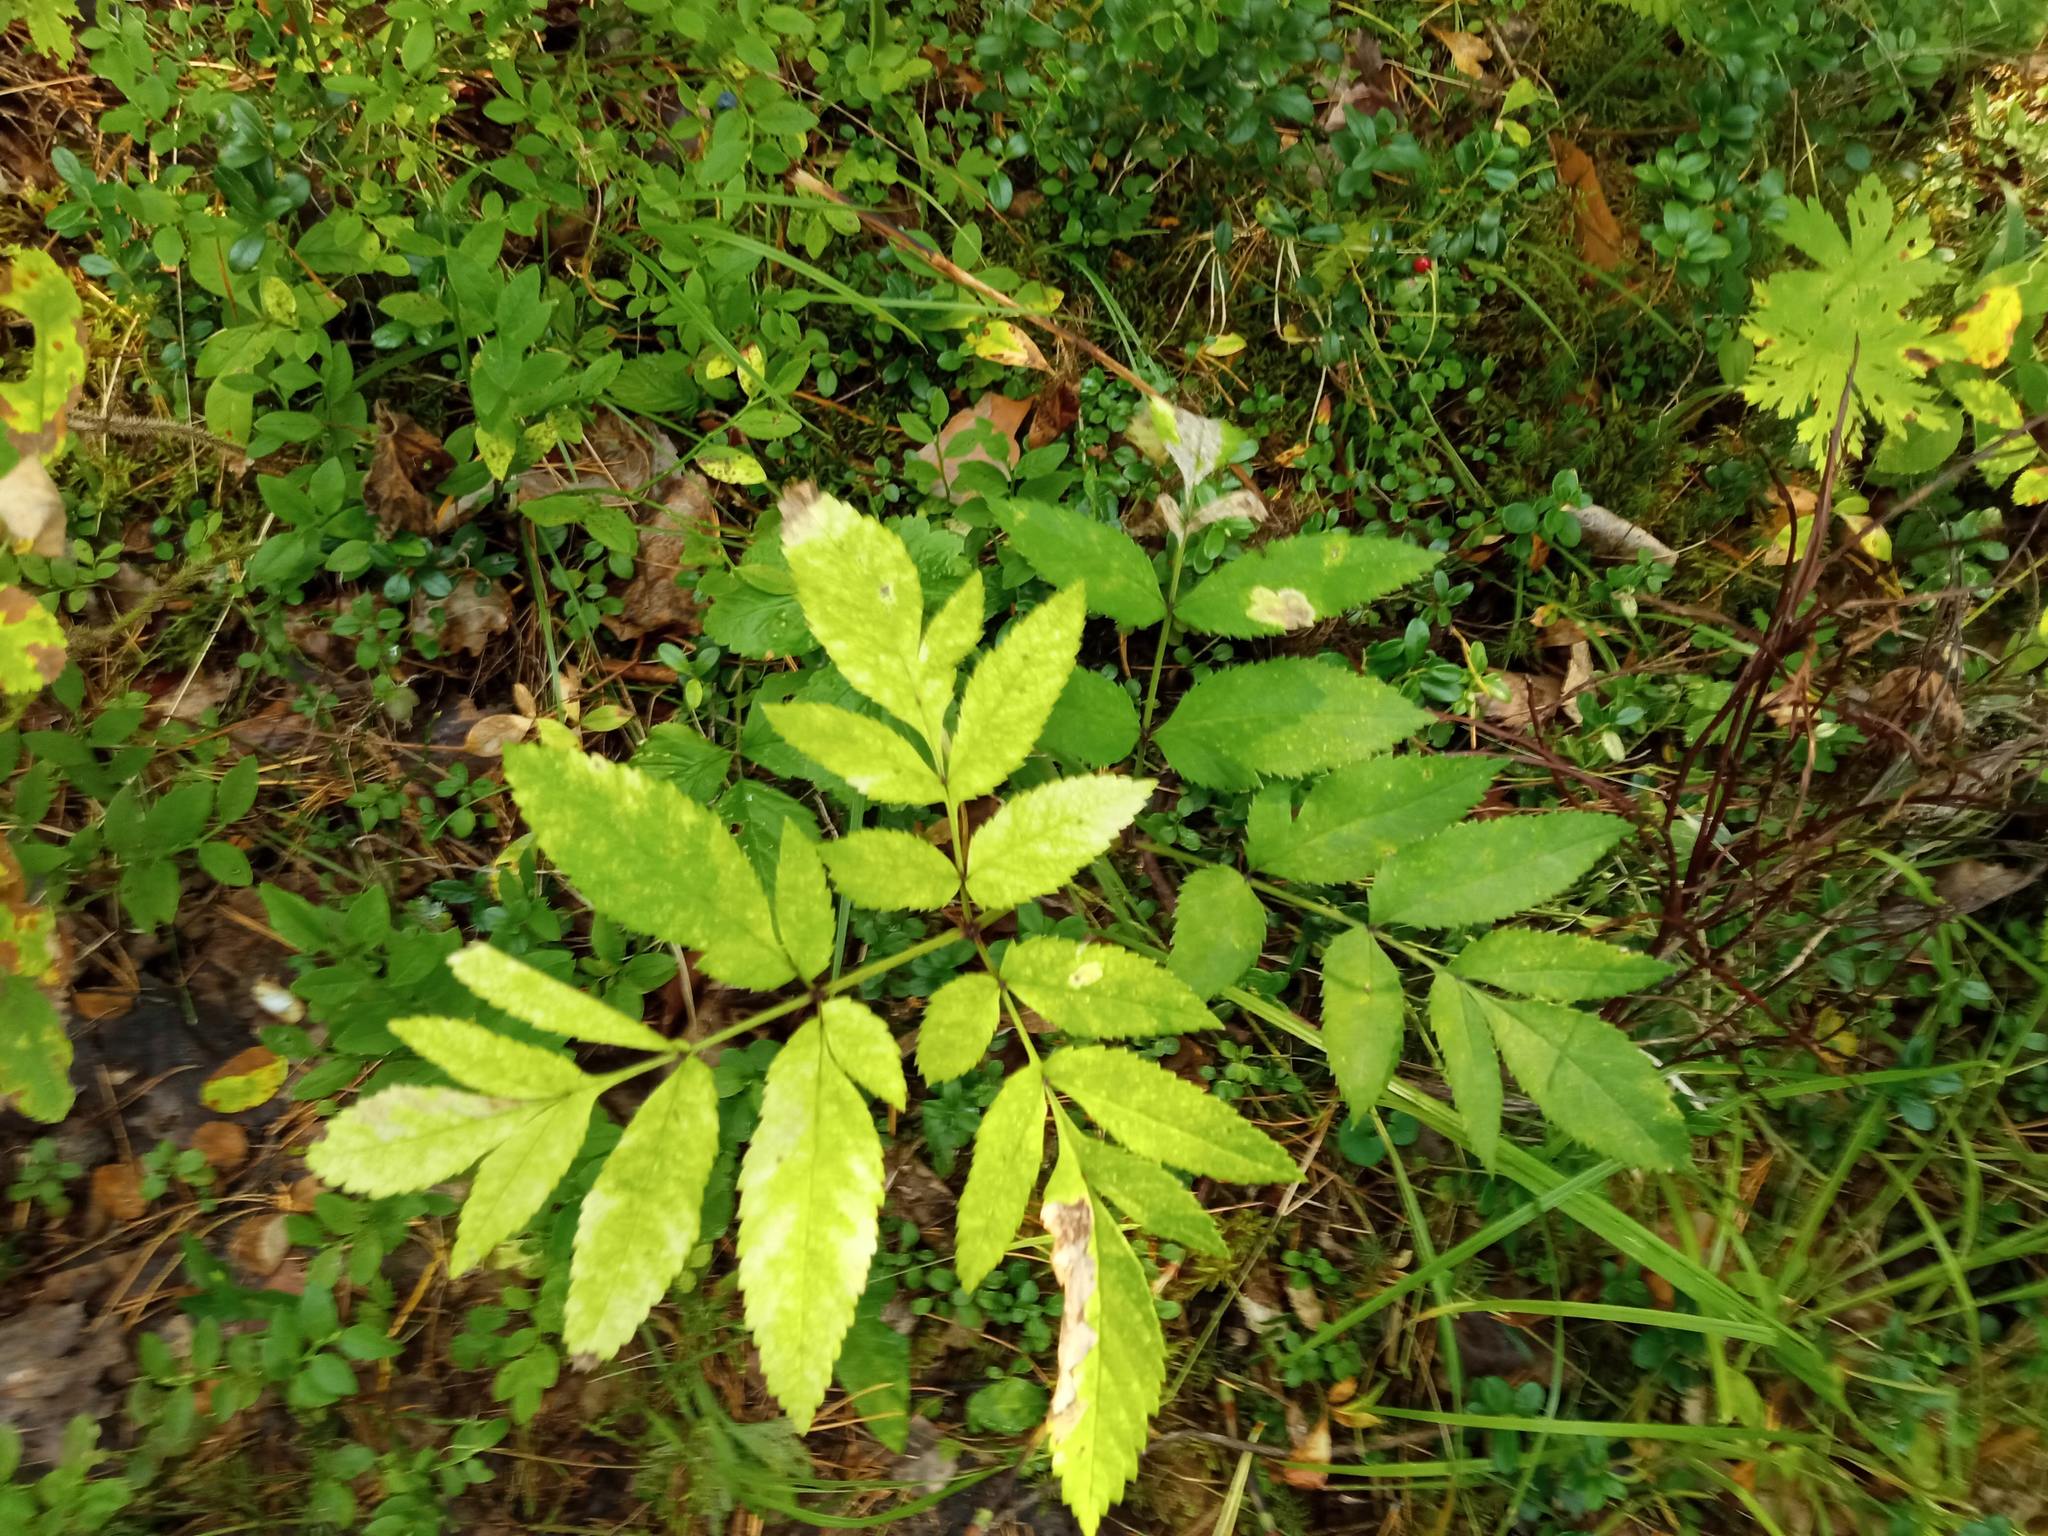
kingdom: Plantae
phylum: Tracheophyta
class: Magnoliopsida
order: Apiales
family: Apiaceae
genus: Angelica
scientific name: Angelica sylvestris
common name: Wild angelica
